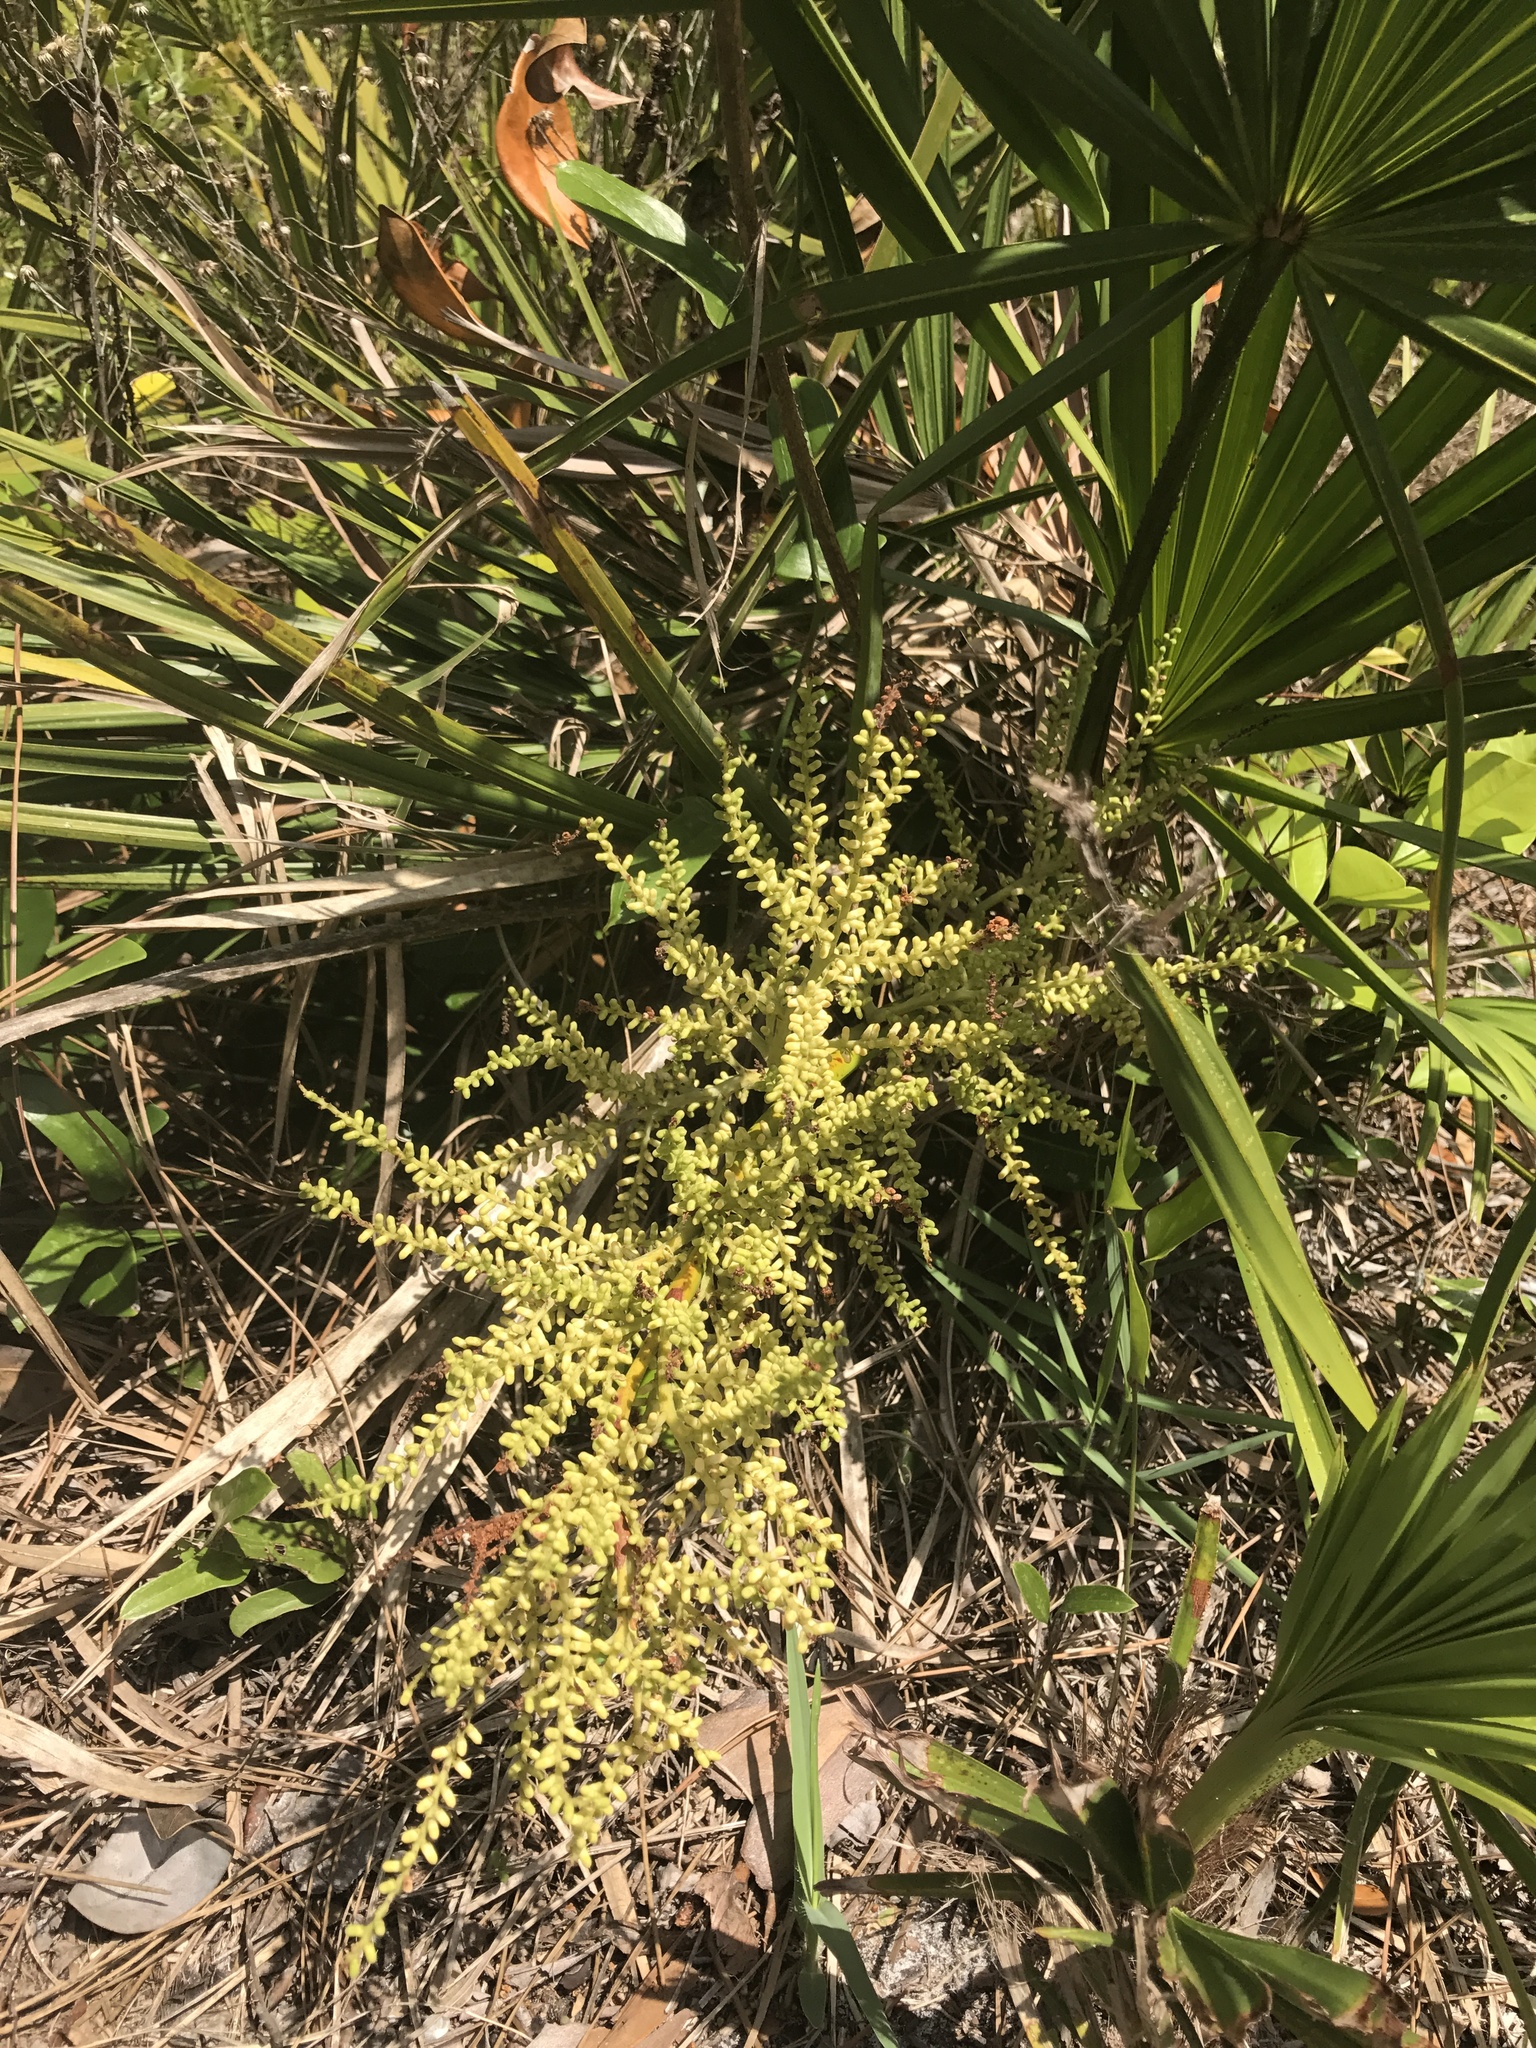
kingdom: Plantae
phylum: Tracheophyta
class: Liliopsida
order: Arecales
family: Arecaceae
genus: Serenoa
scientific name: Serenoa repens
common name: Saw-palmetto
